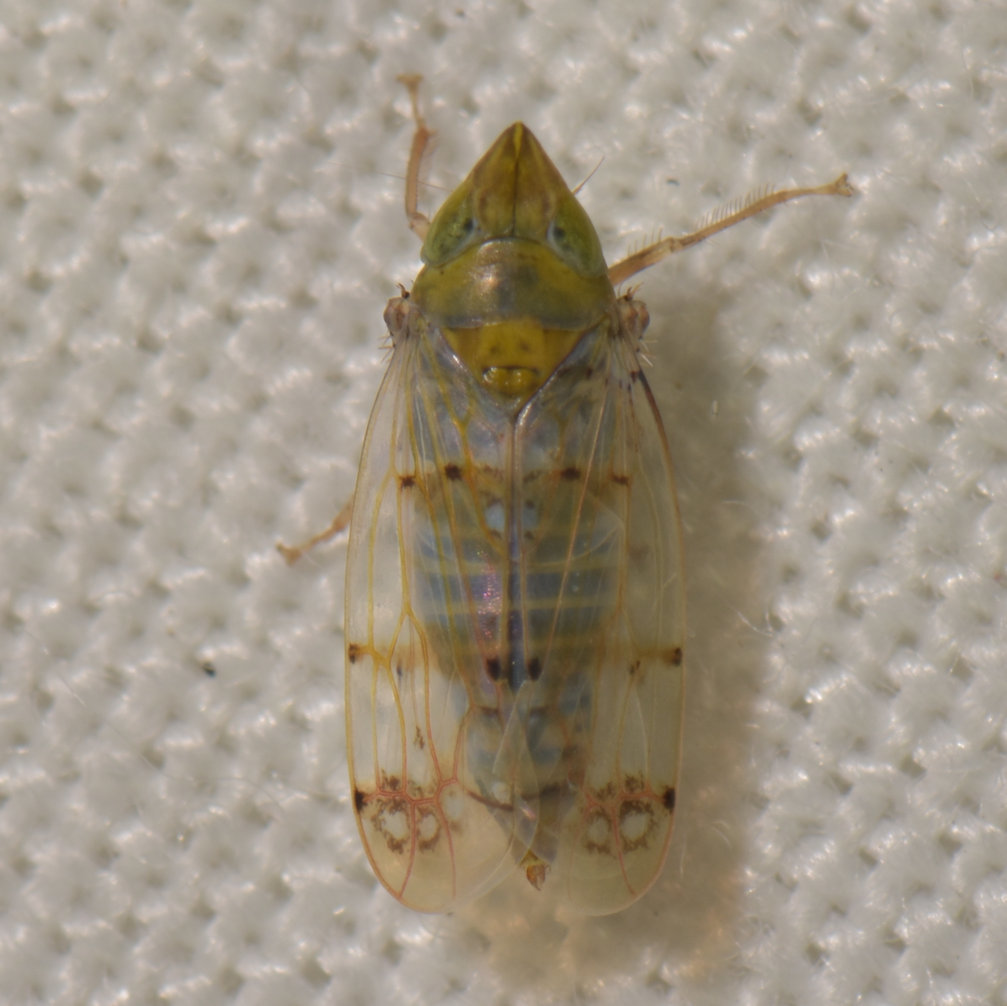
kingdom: Animalia
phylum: Arthropoda
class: Insecta
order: Hemiptera
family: Cicadellidae
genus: Japananus
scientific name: Japananus hyalinus
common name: The japanese maple leafhopper
